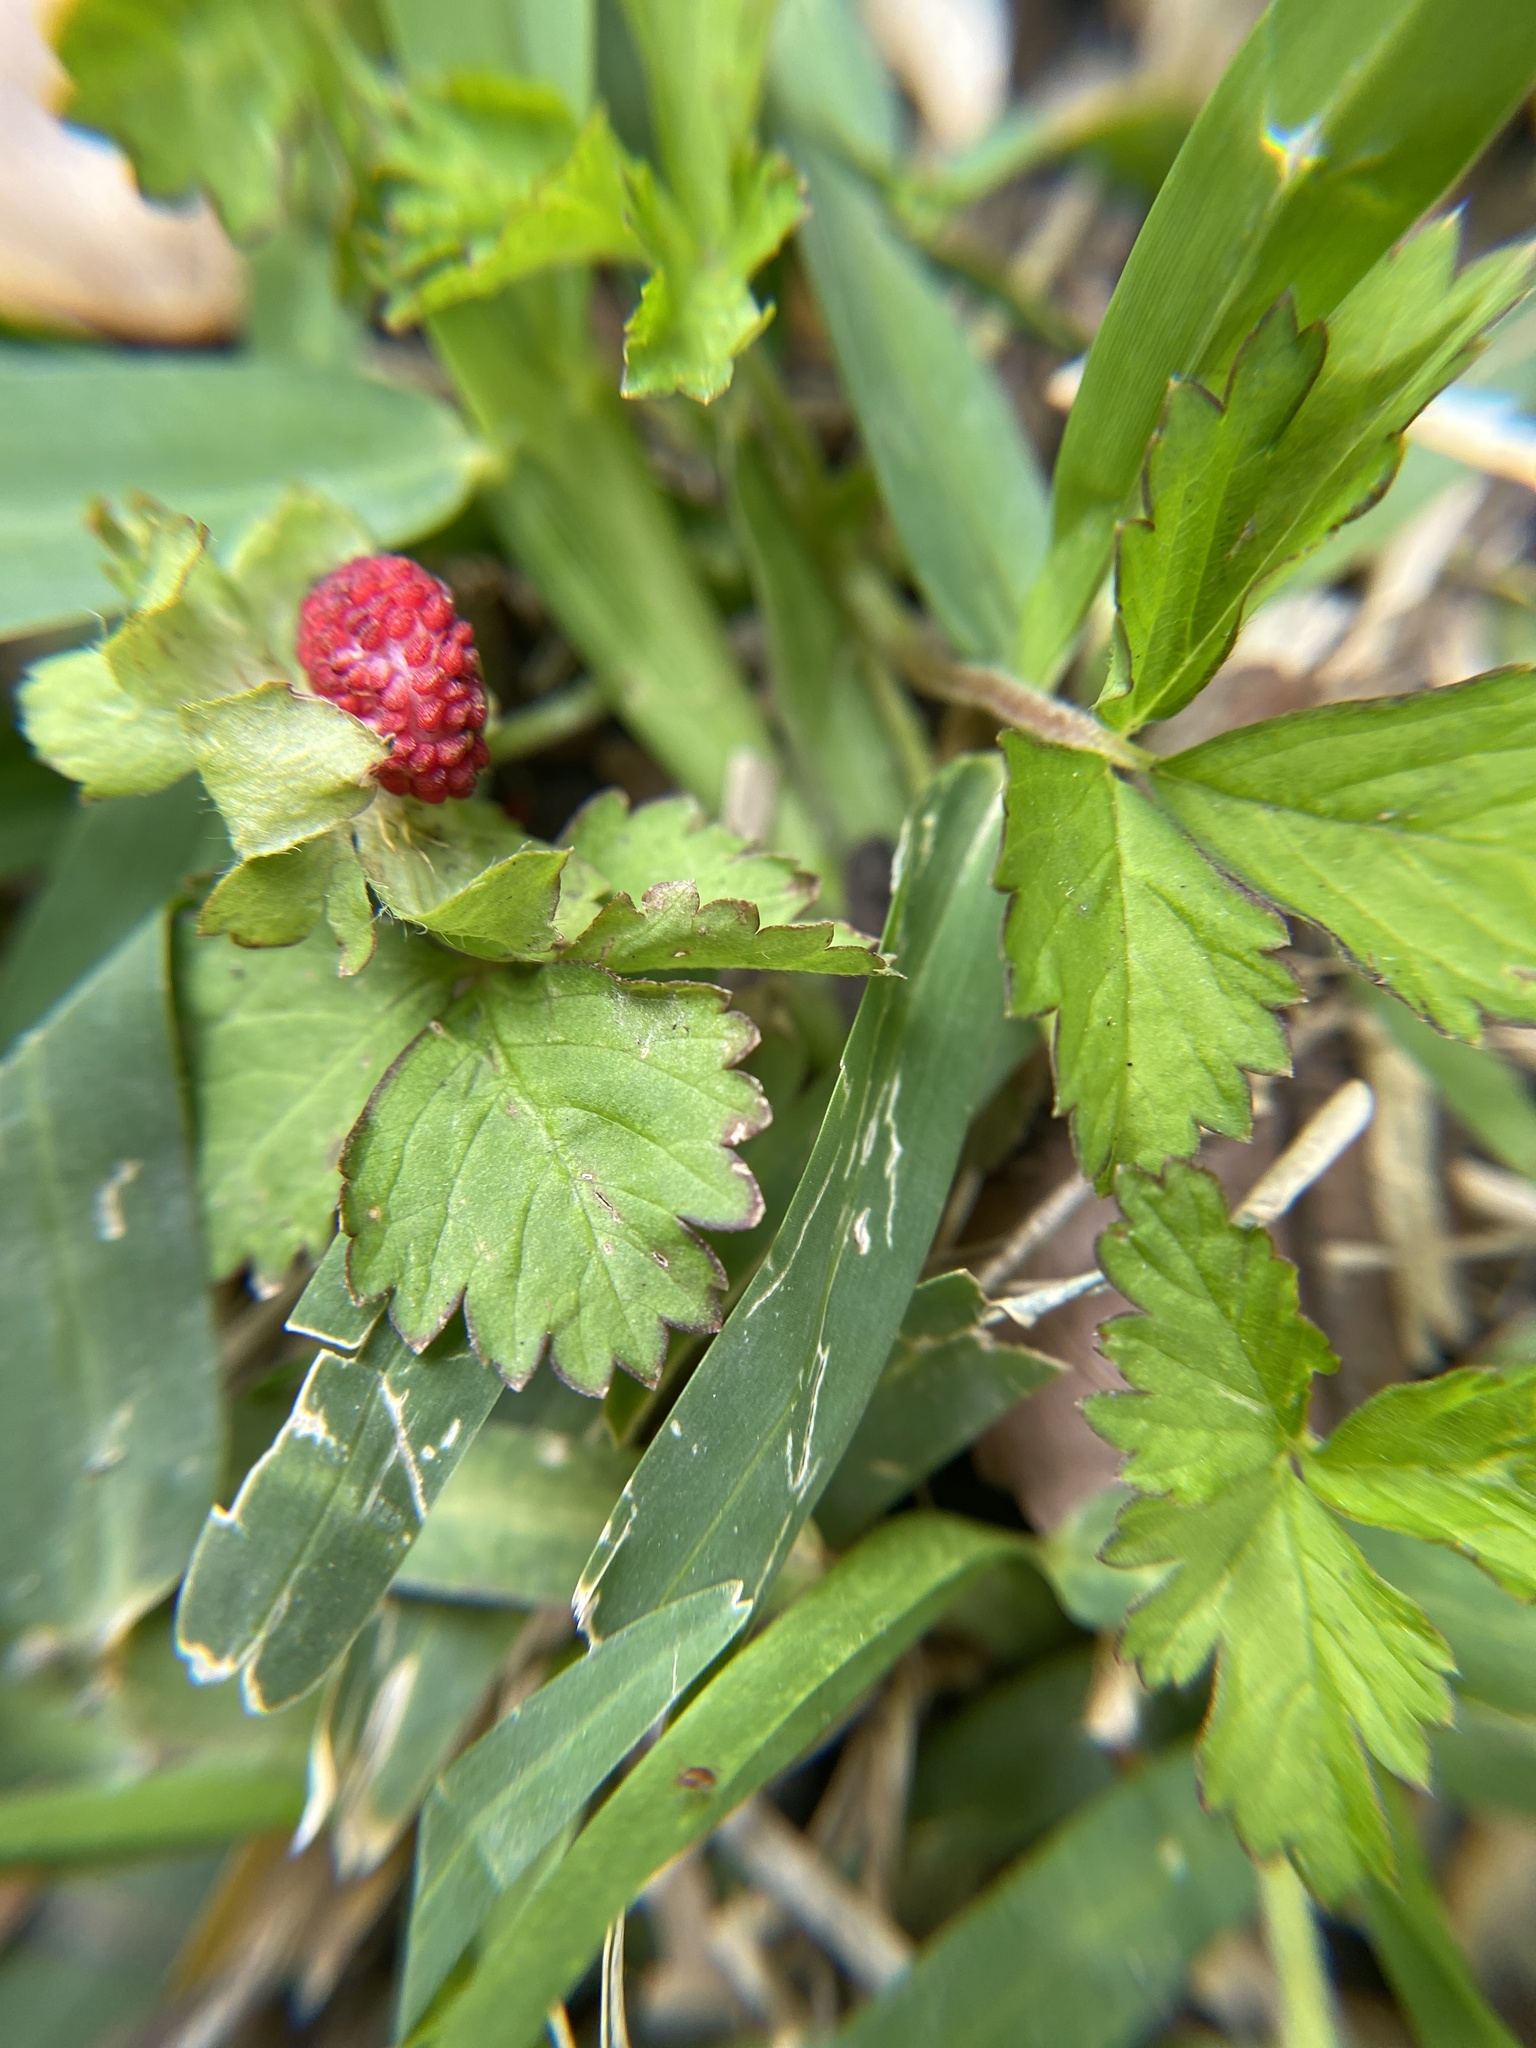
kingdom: Plantae
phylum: Tracheophyta
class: Magnoliopsida
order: Rosales
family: Rosaceae
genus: Potentilla
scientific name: Potentilla indica
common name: Yellow-flowered strawberry
